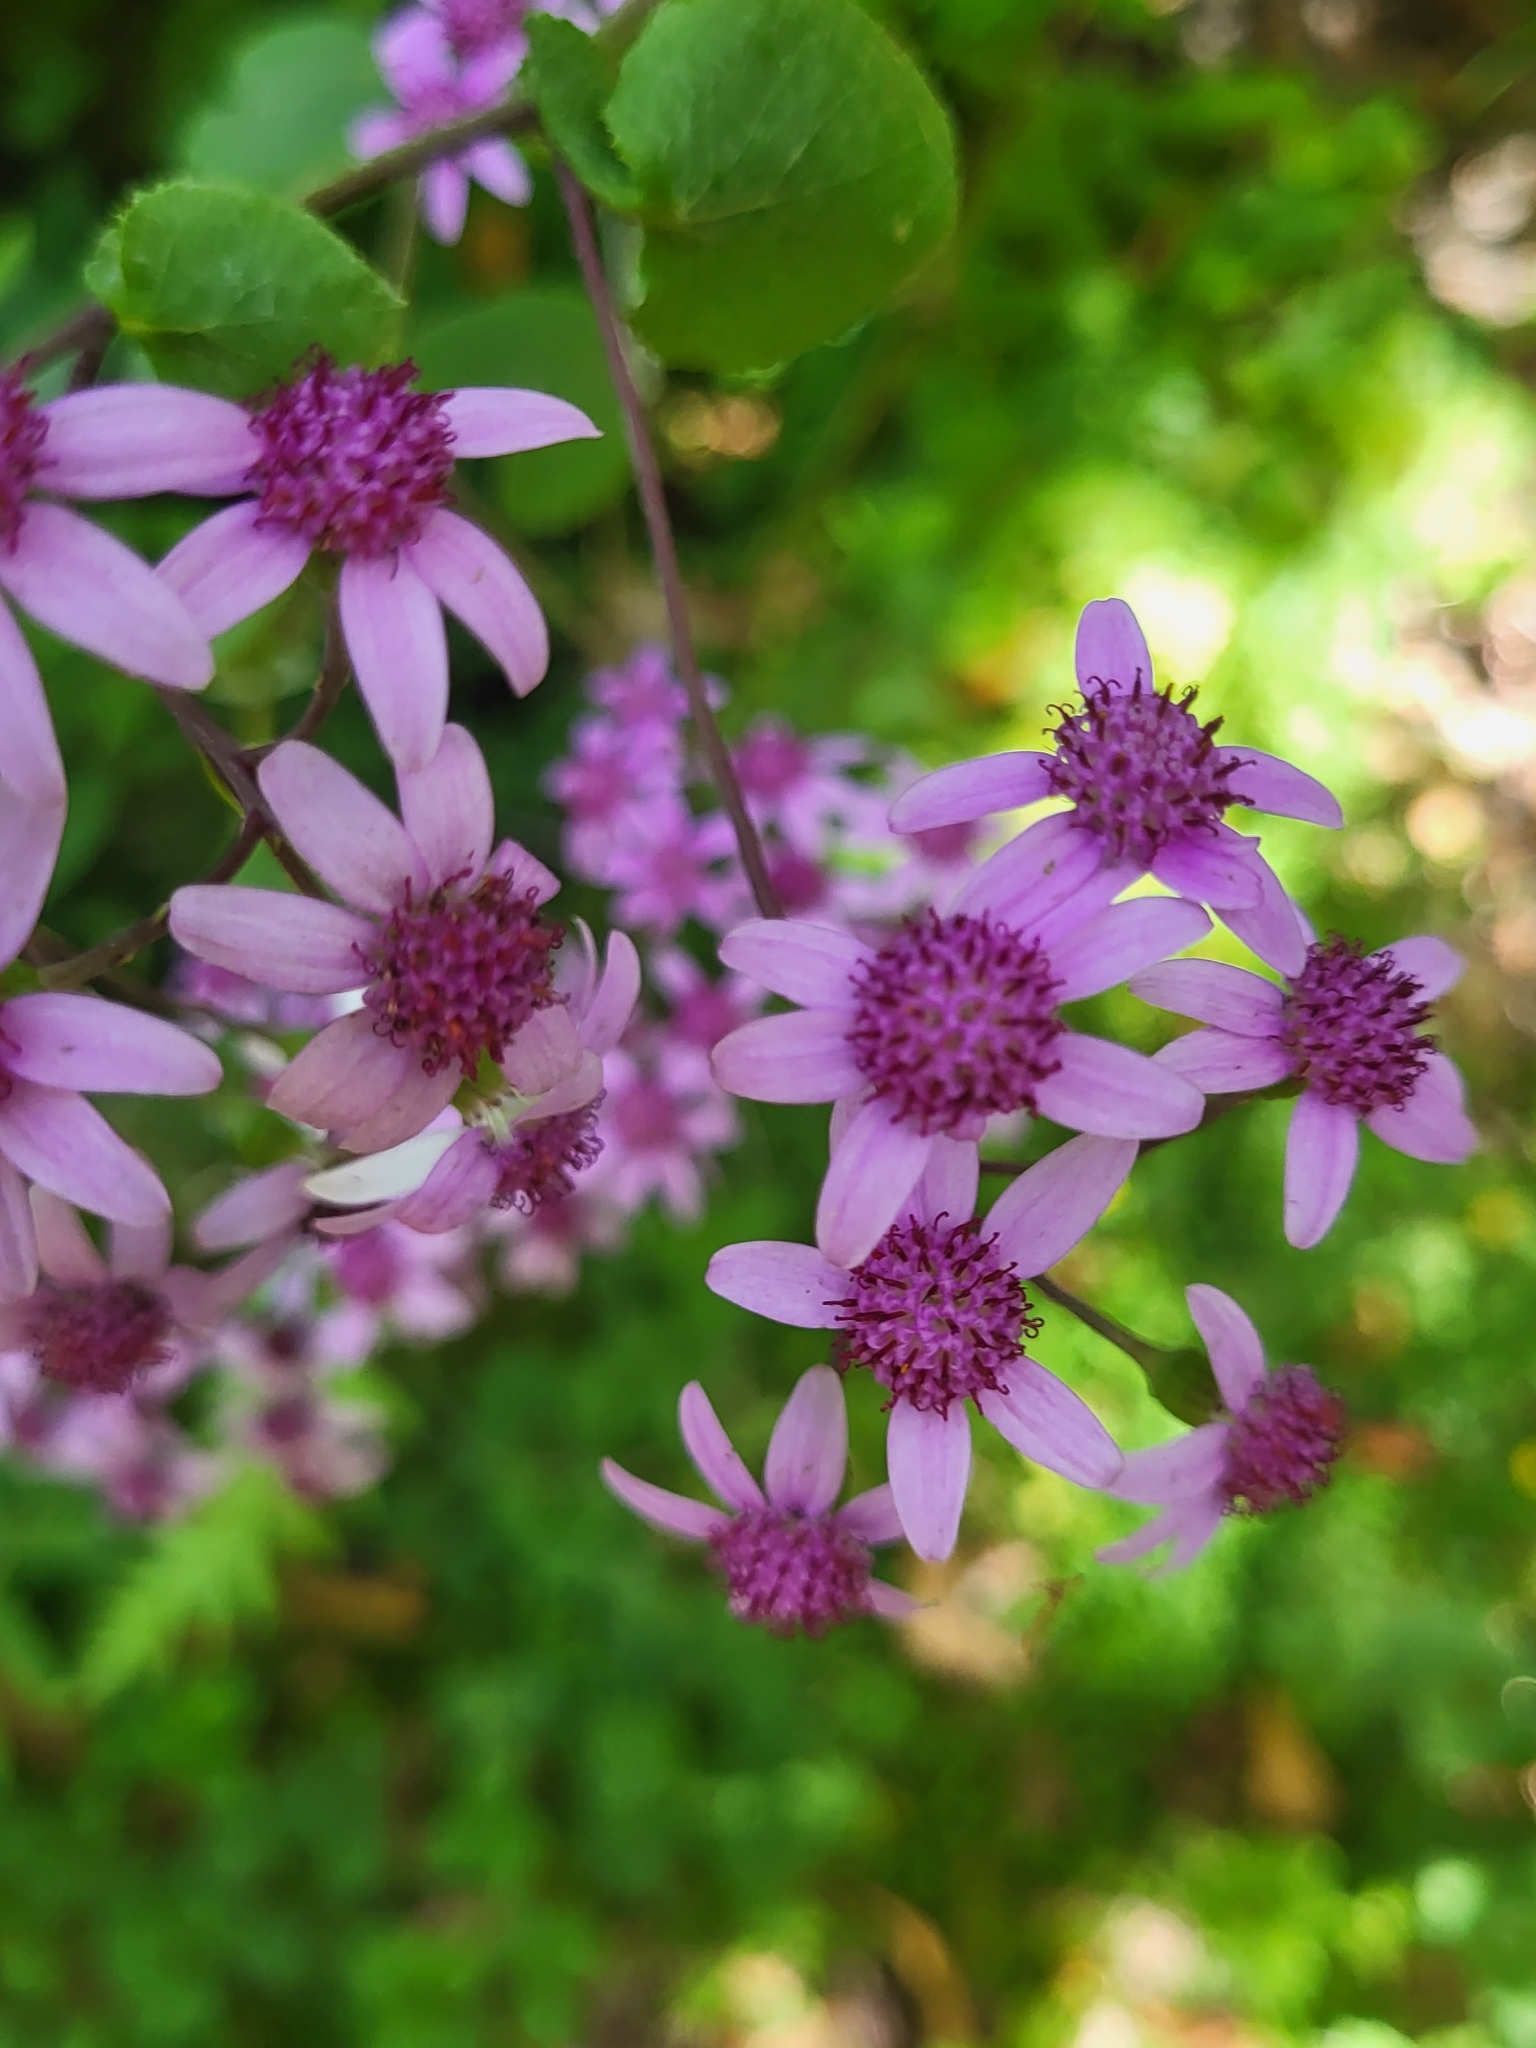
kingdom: Plantae
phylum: Tracheophyta
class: Magnoliopsida
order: Asterales
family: Asteraceae
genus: Pericallis
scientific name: Pericallis aurita
